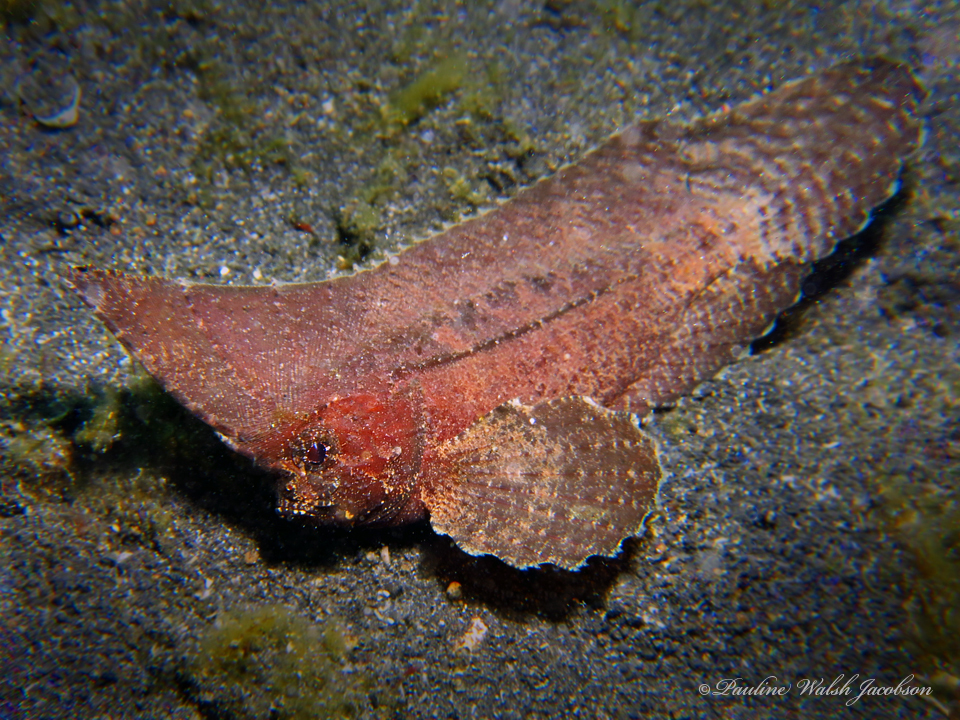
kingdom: Animalia
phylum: Chordata
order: Scorpaeniformes
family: Tetrarogidae
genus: Ablabys
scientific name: Ablabys macracanthus
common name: Spiny leaf-fish
